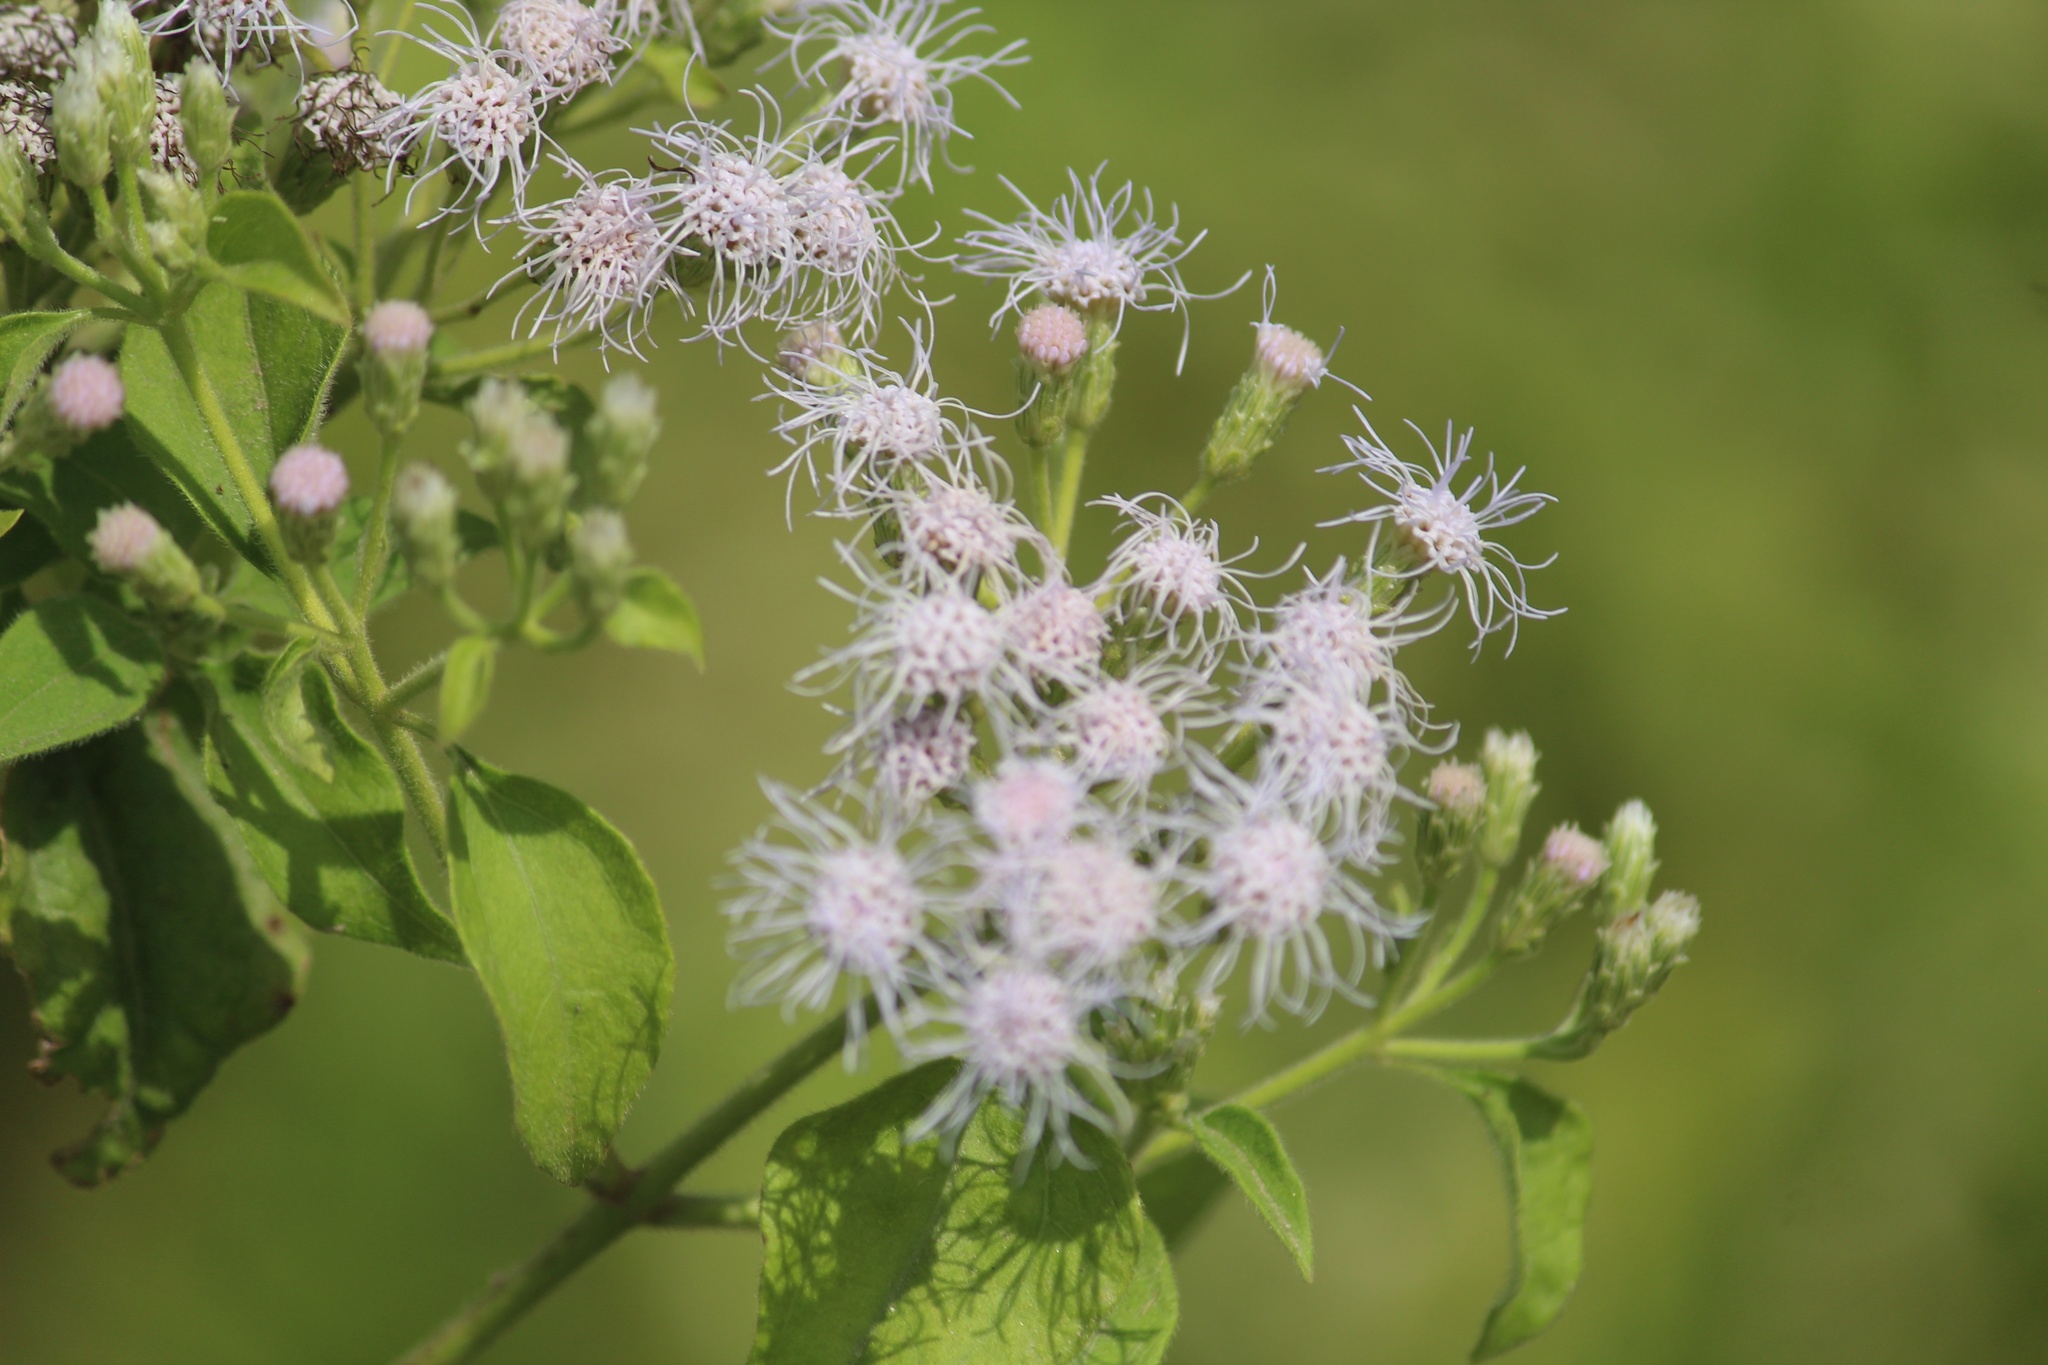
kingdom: Plantae
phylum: Tracheophyta
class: Magnoliopsida
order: Asterales
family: Asteraceae
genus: Chromolaena
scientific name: Chromolaena odorata
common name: Siamweed
